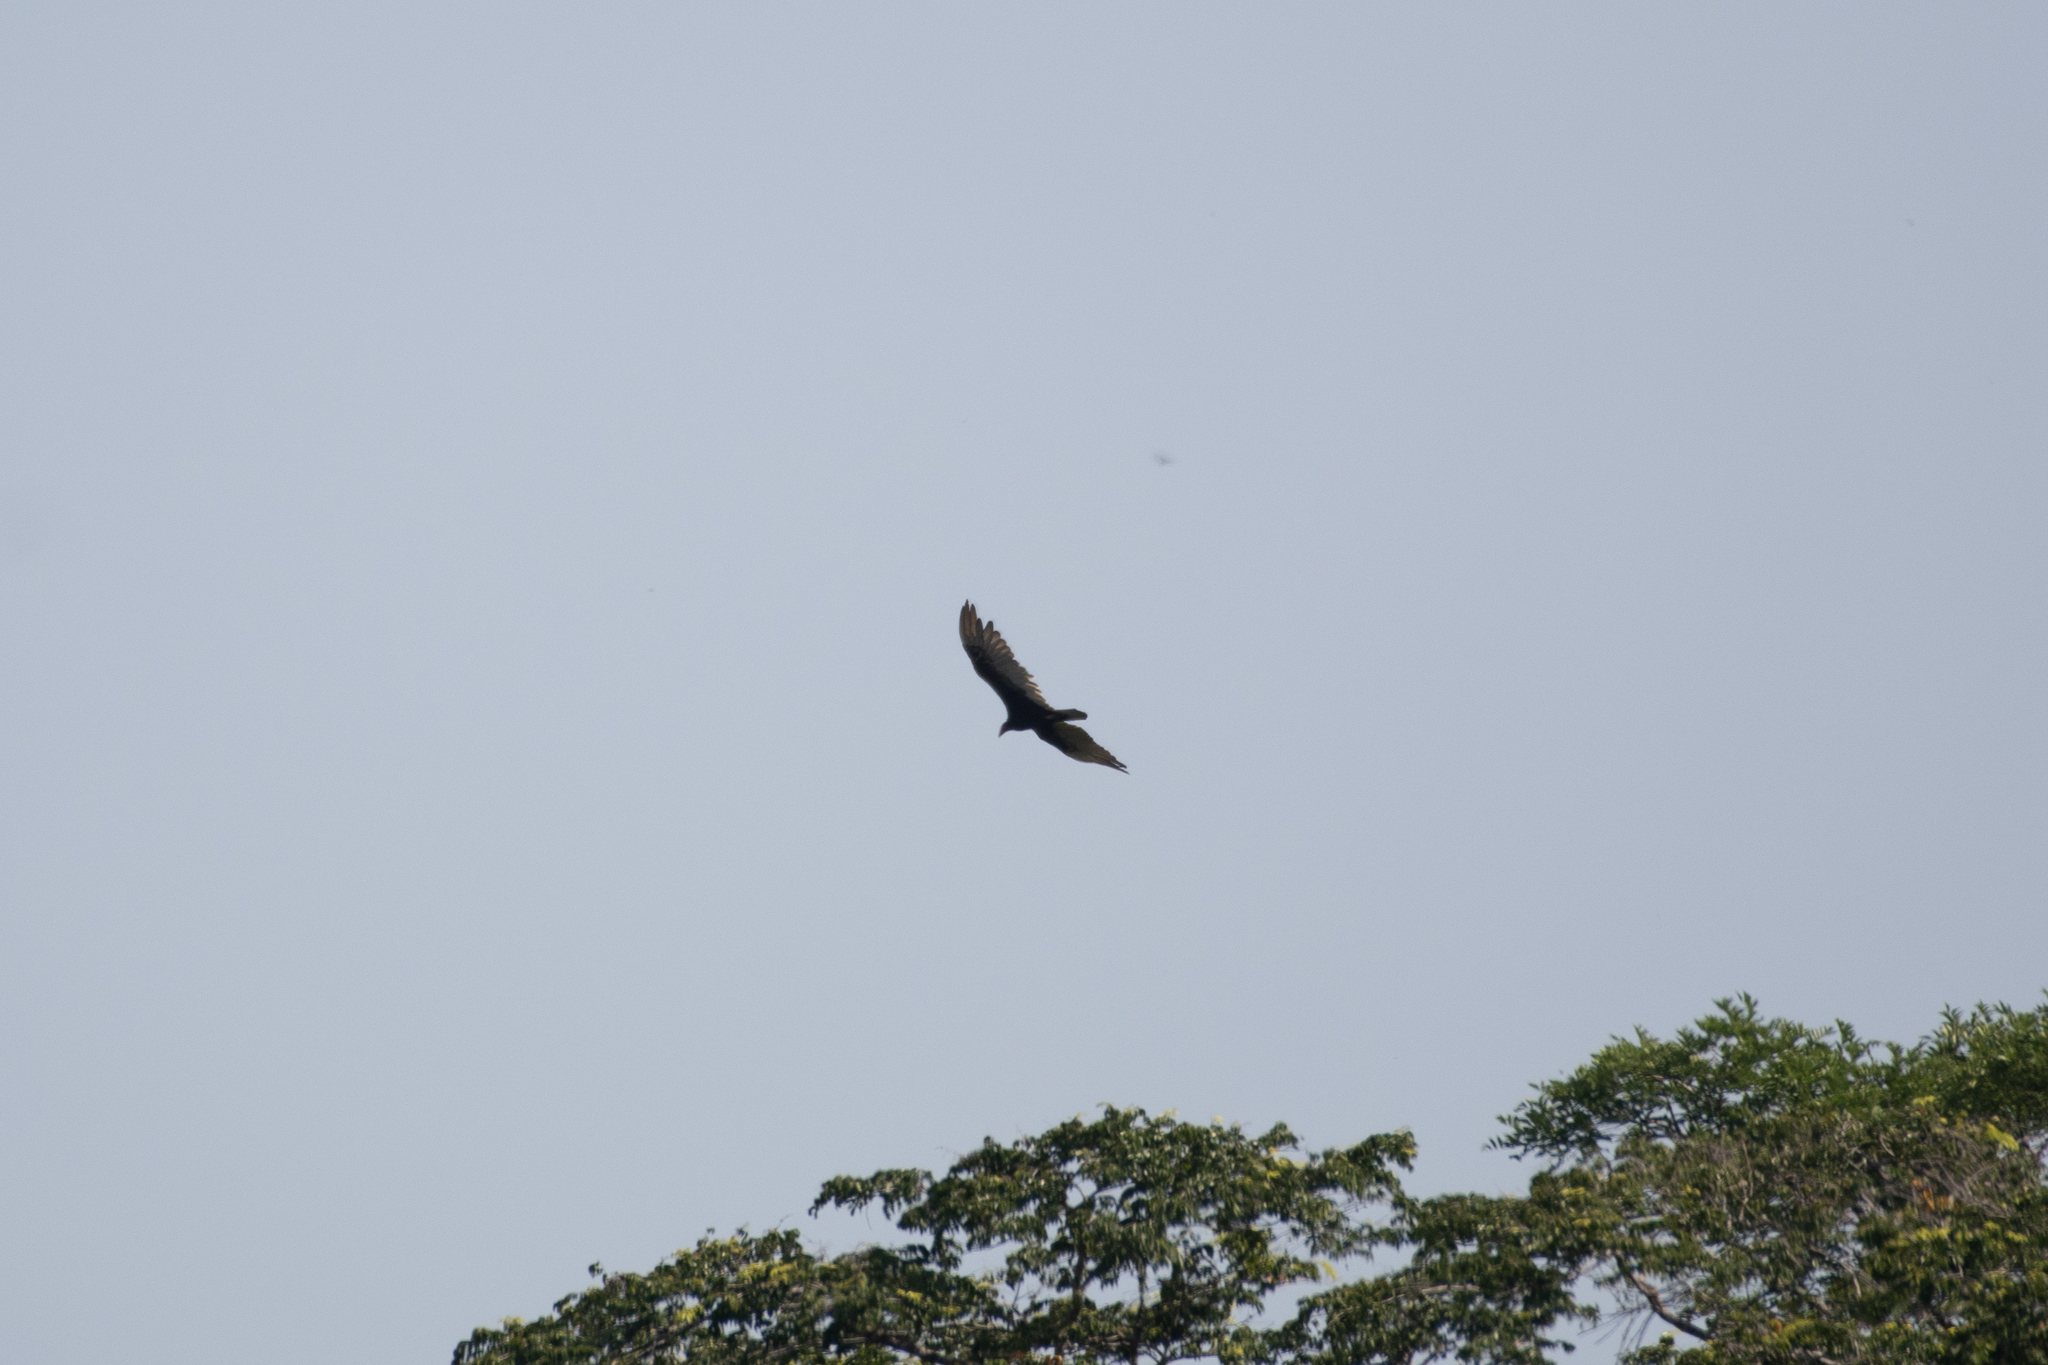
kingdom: Animalia
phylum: Chordata
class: Aves
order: Accipitriformes
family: Cathartidae
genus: Cathartes
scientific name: Cathartes aura
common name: Turkey vulture
